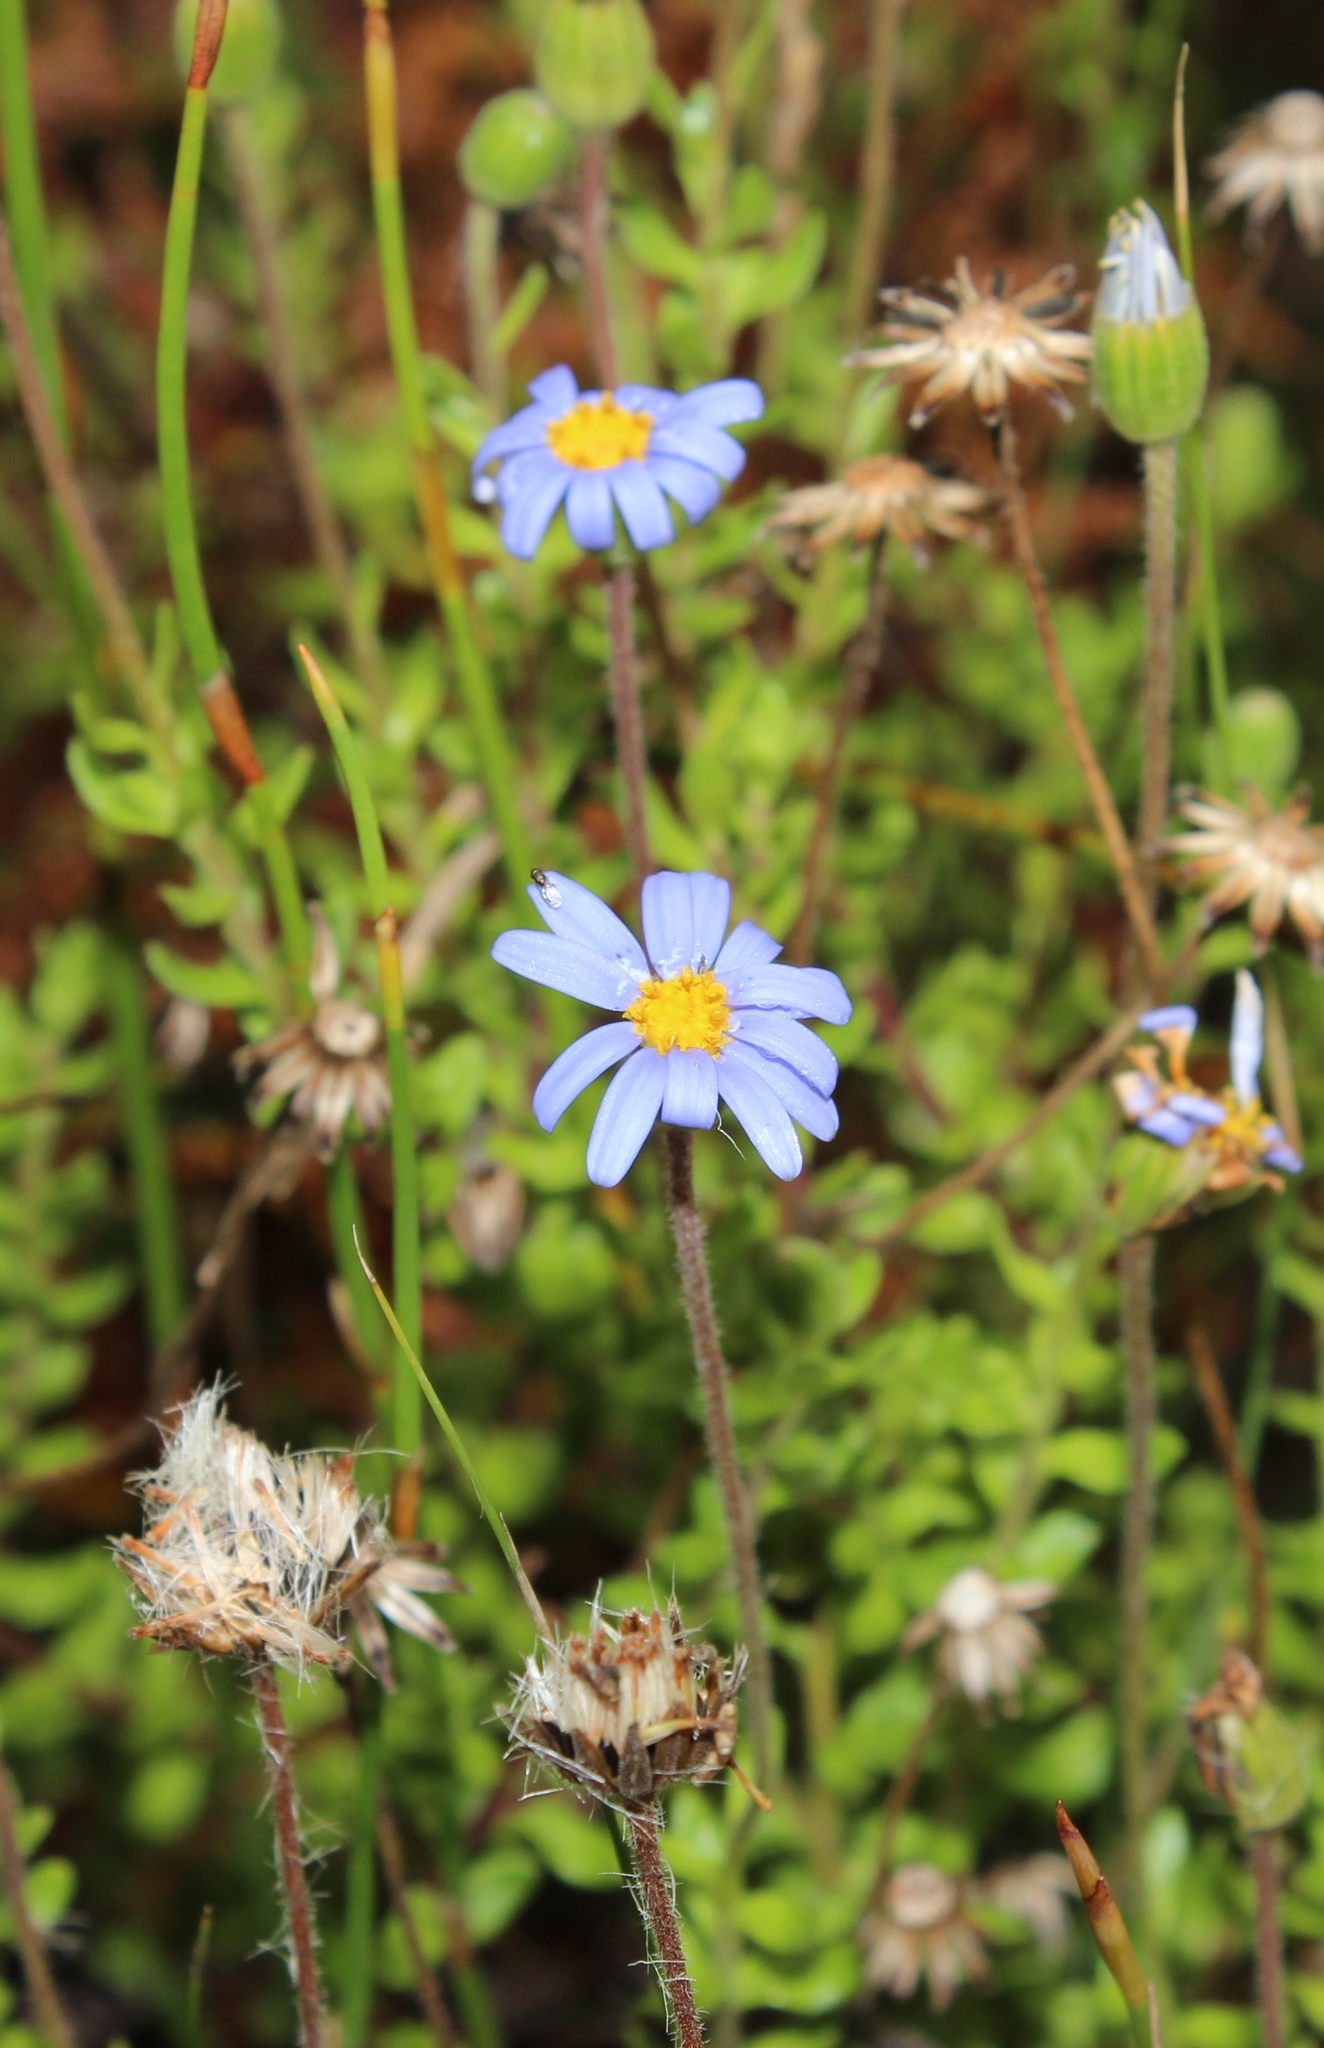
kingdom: Plantae
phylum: Tracheophyta
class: Magnoliopsida
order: Asterales
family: Asteraceae
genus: Felicia
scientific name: Felicia aethiopica
